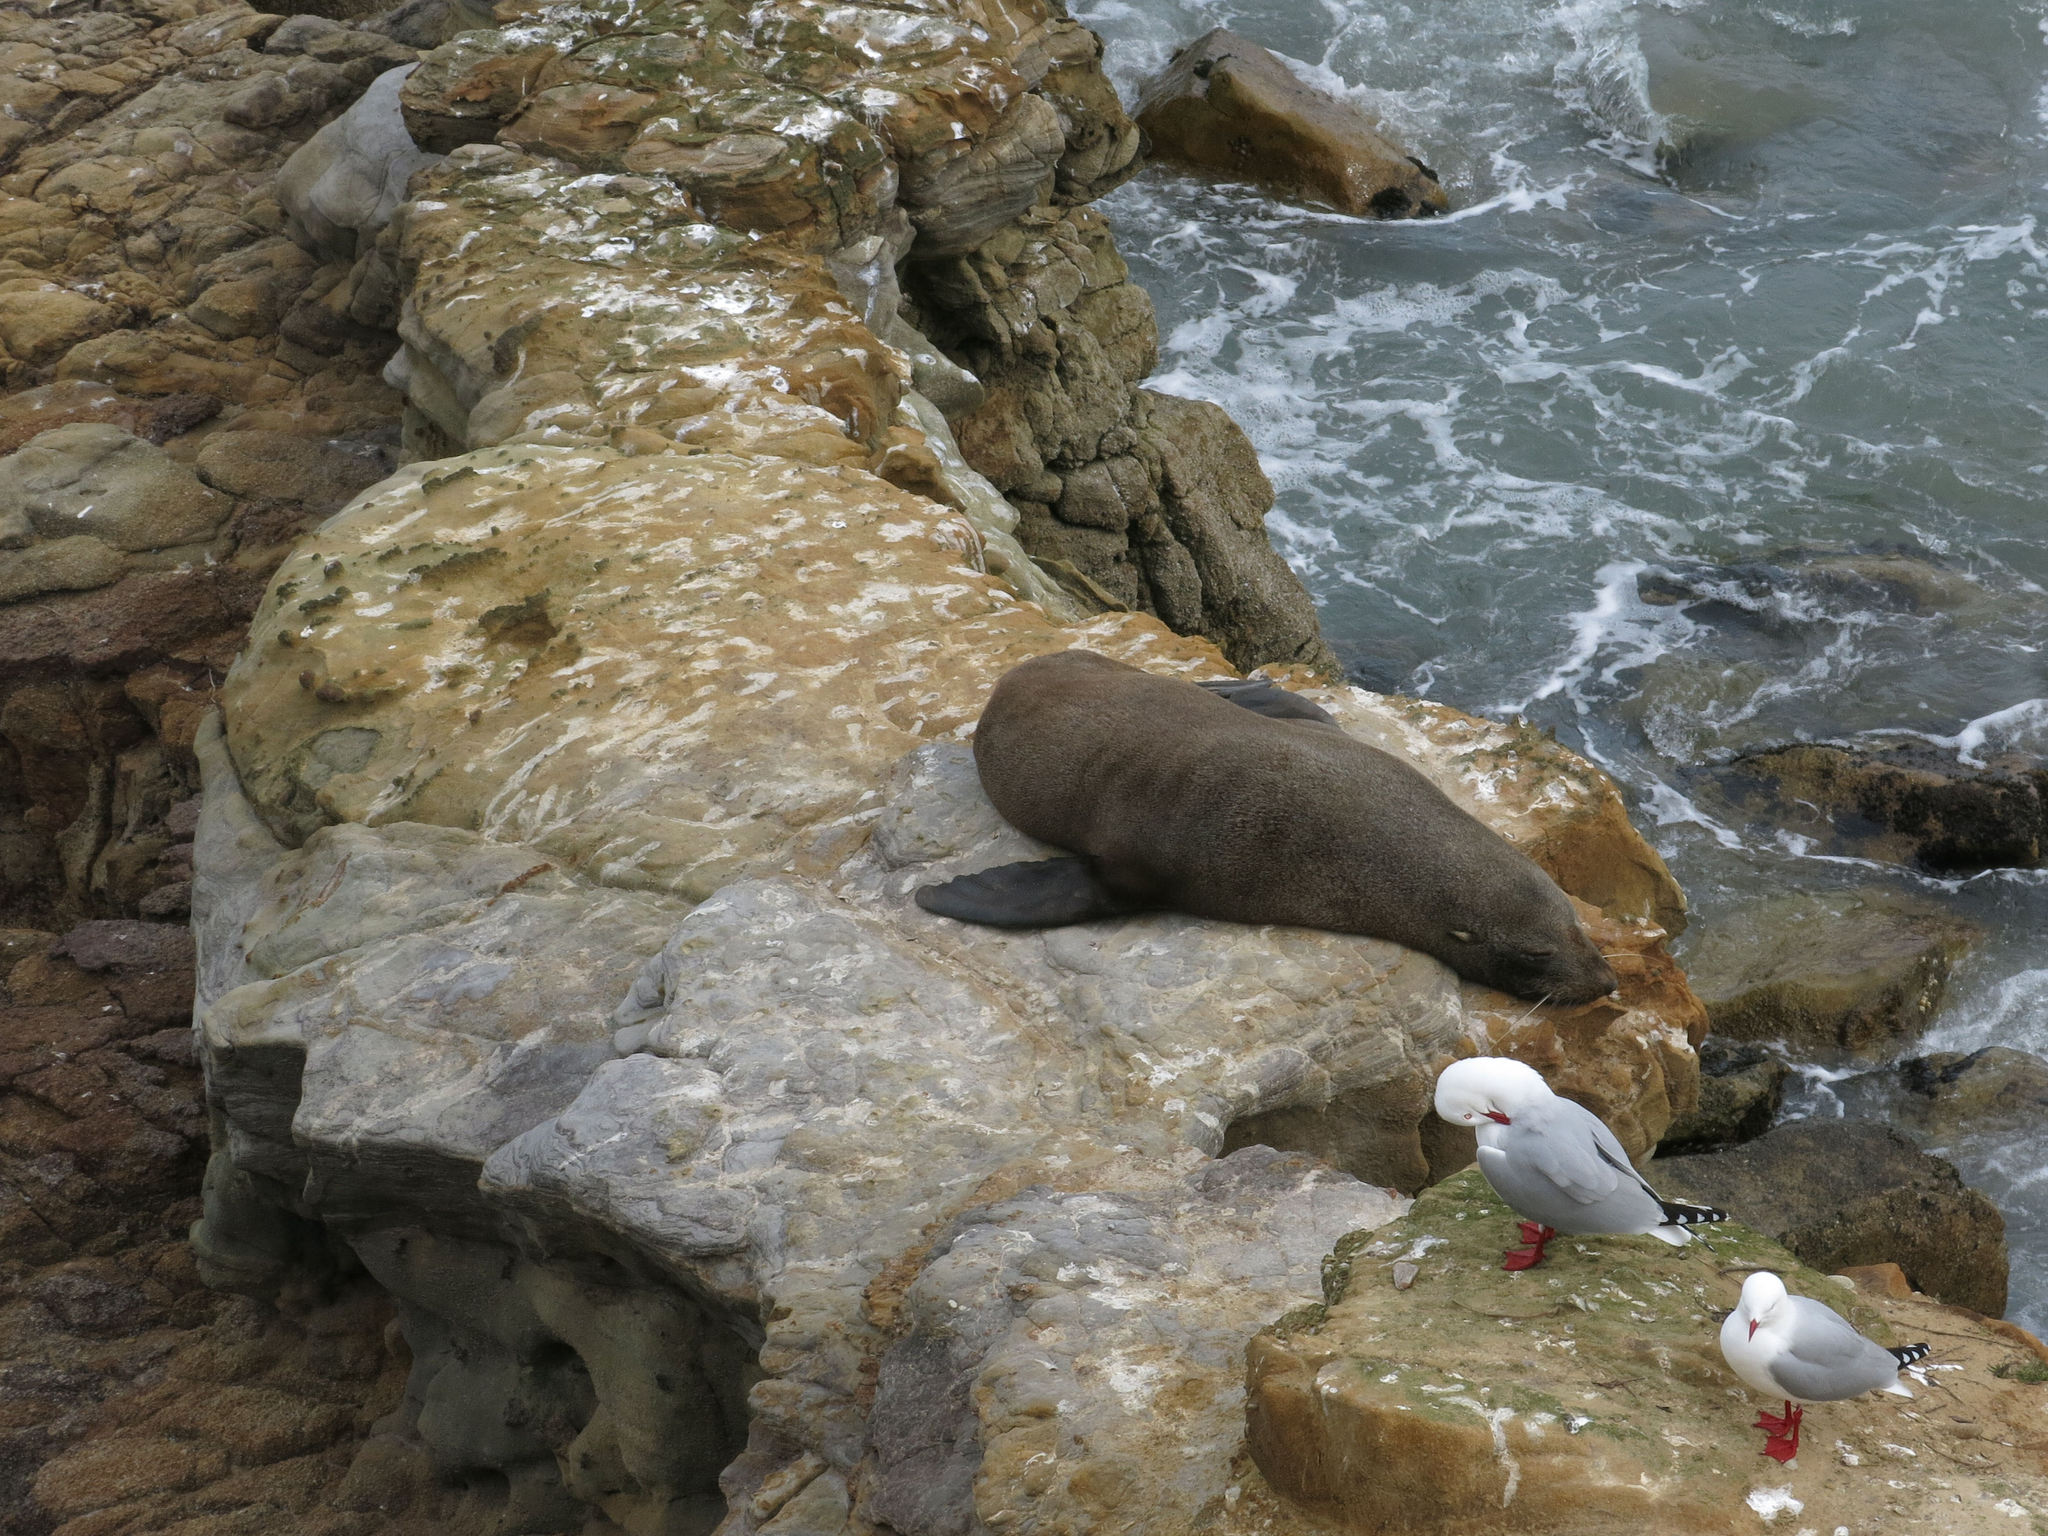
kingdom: Animalia
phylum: Chordata
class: Mammalia
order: Carnivora
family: Otariidae
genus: Arctocephalus
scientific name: Arctocephalus forsteri
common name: New zealand fur seal
